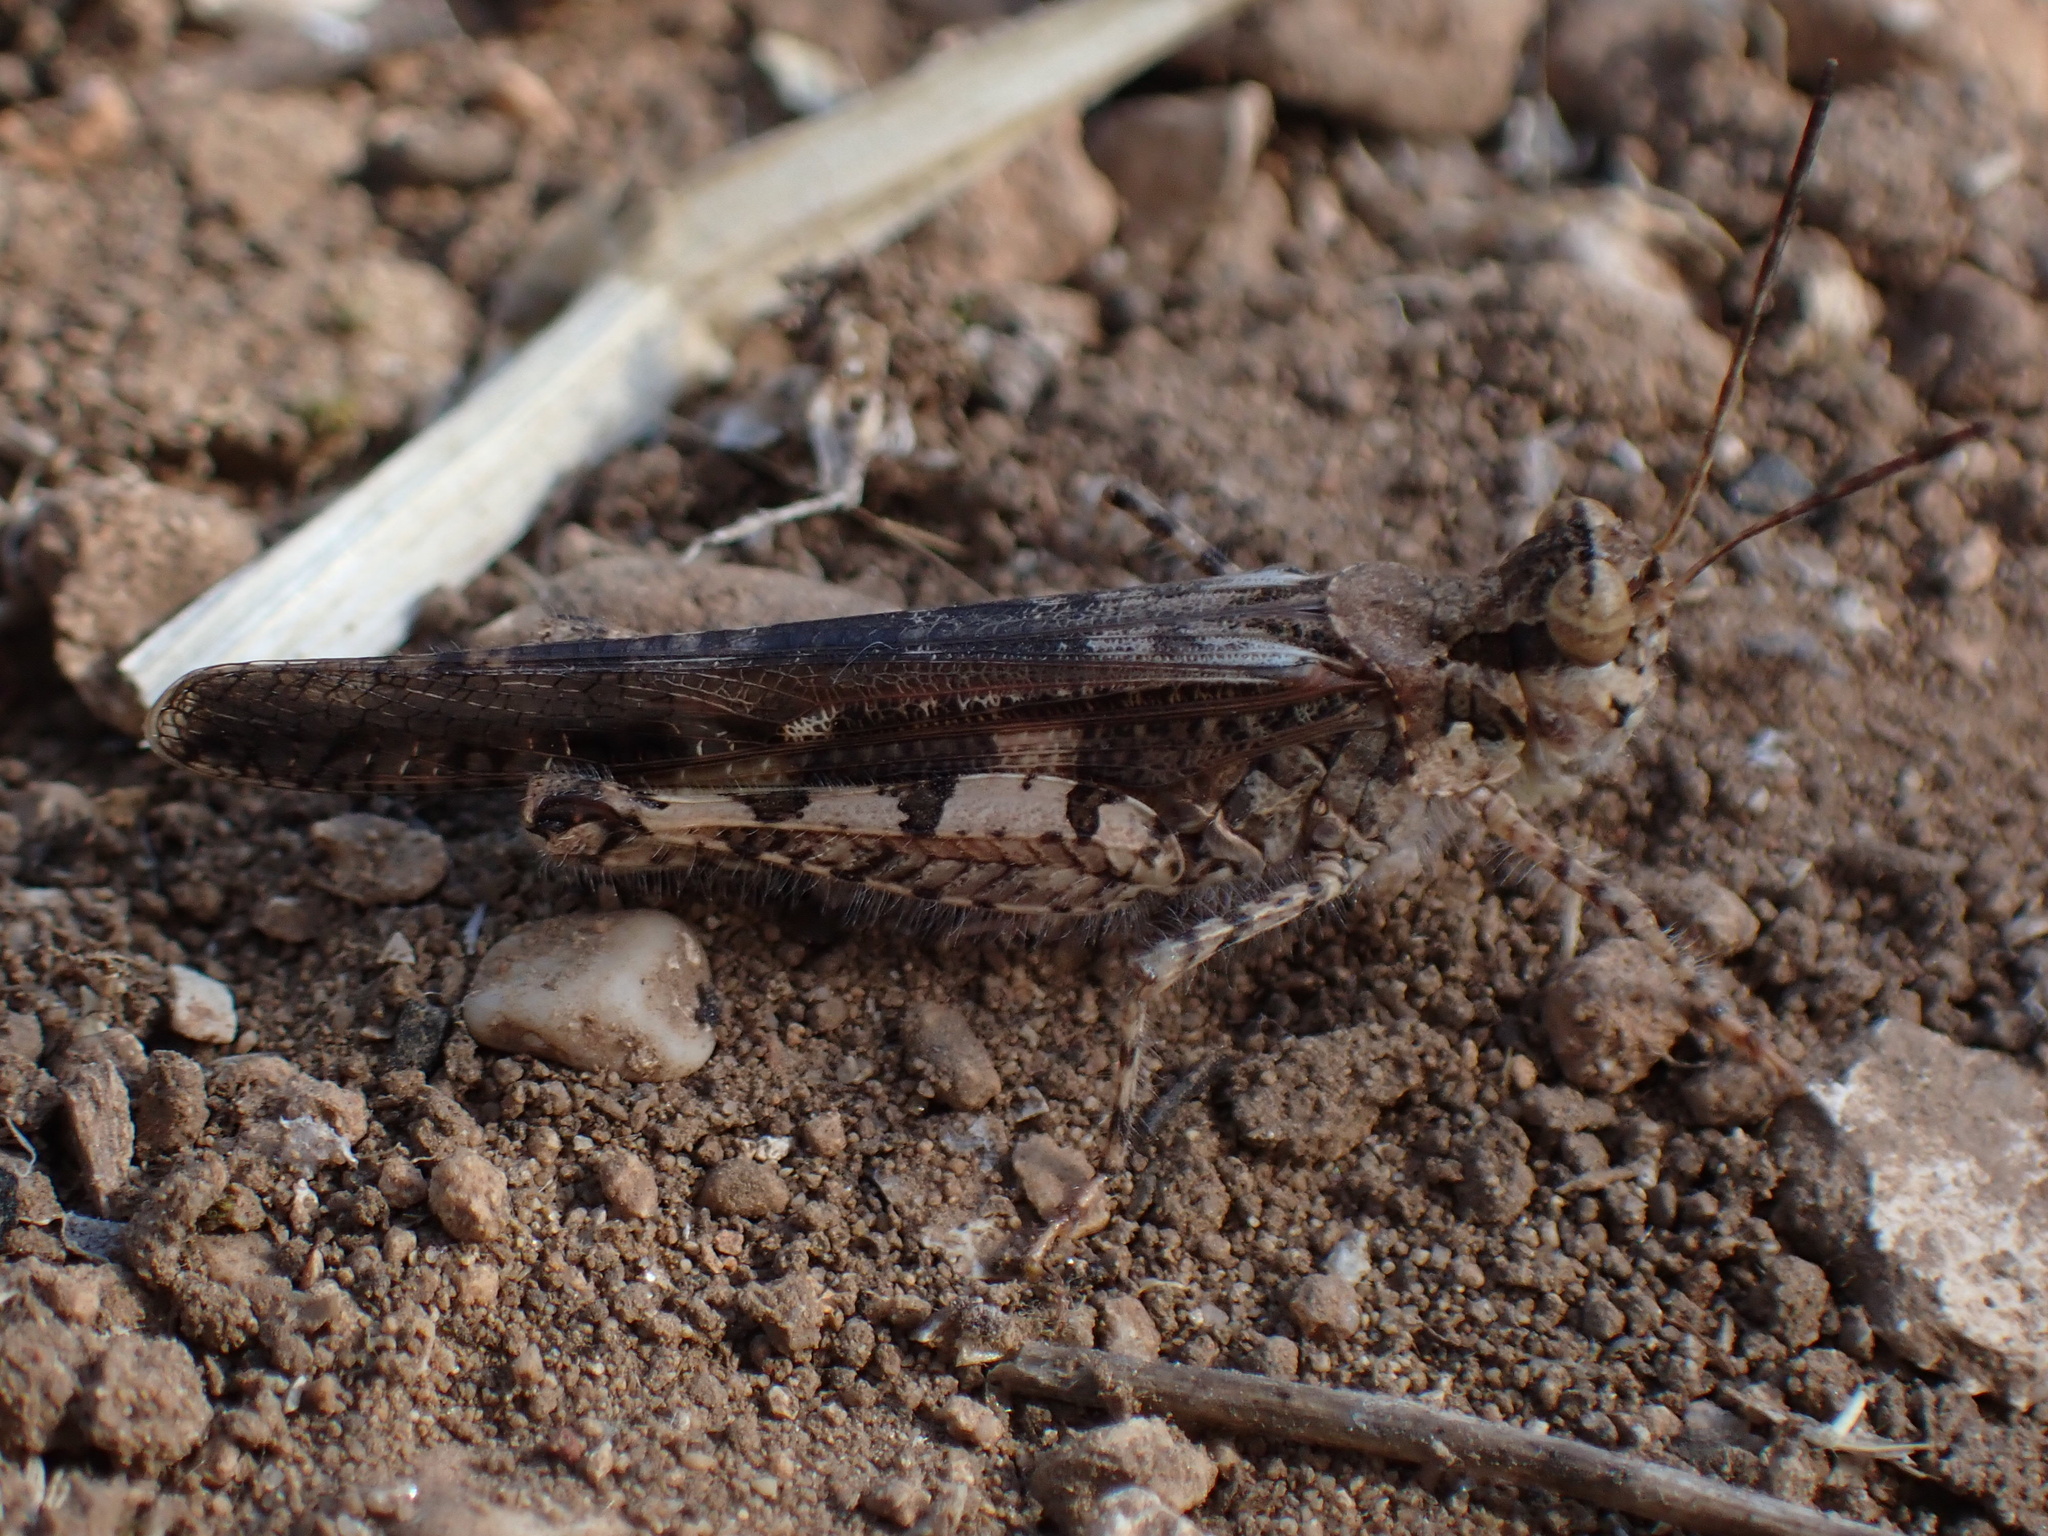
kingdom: Animalia
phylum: Arthropoda
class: Insecta
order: Orthoptera
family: Acrididae
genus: Acrotylus
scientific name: Acrotylus patruelis
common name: Slender burrowing grasshopper
